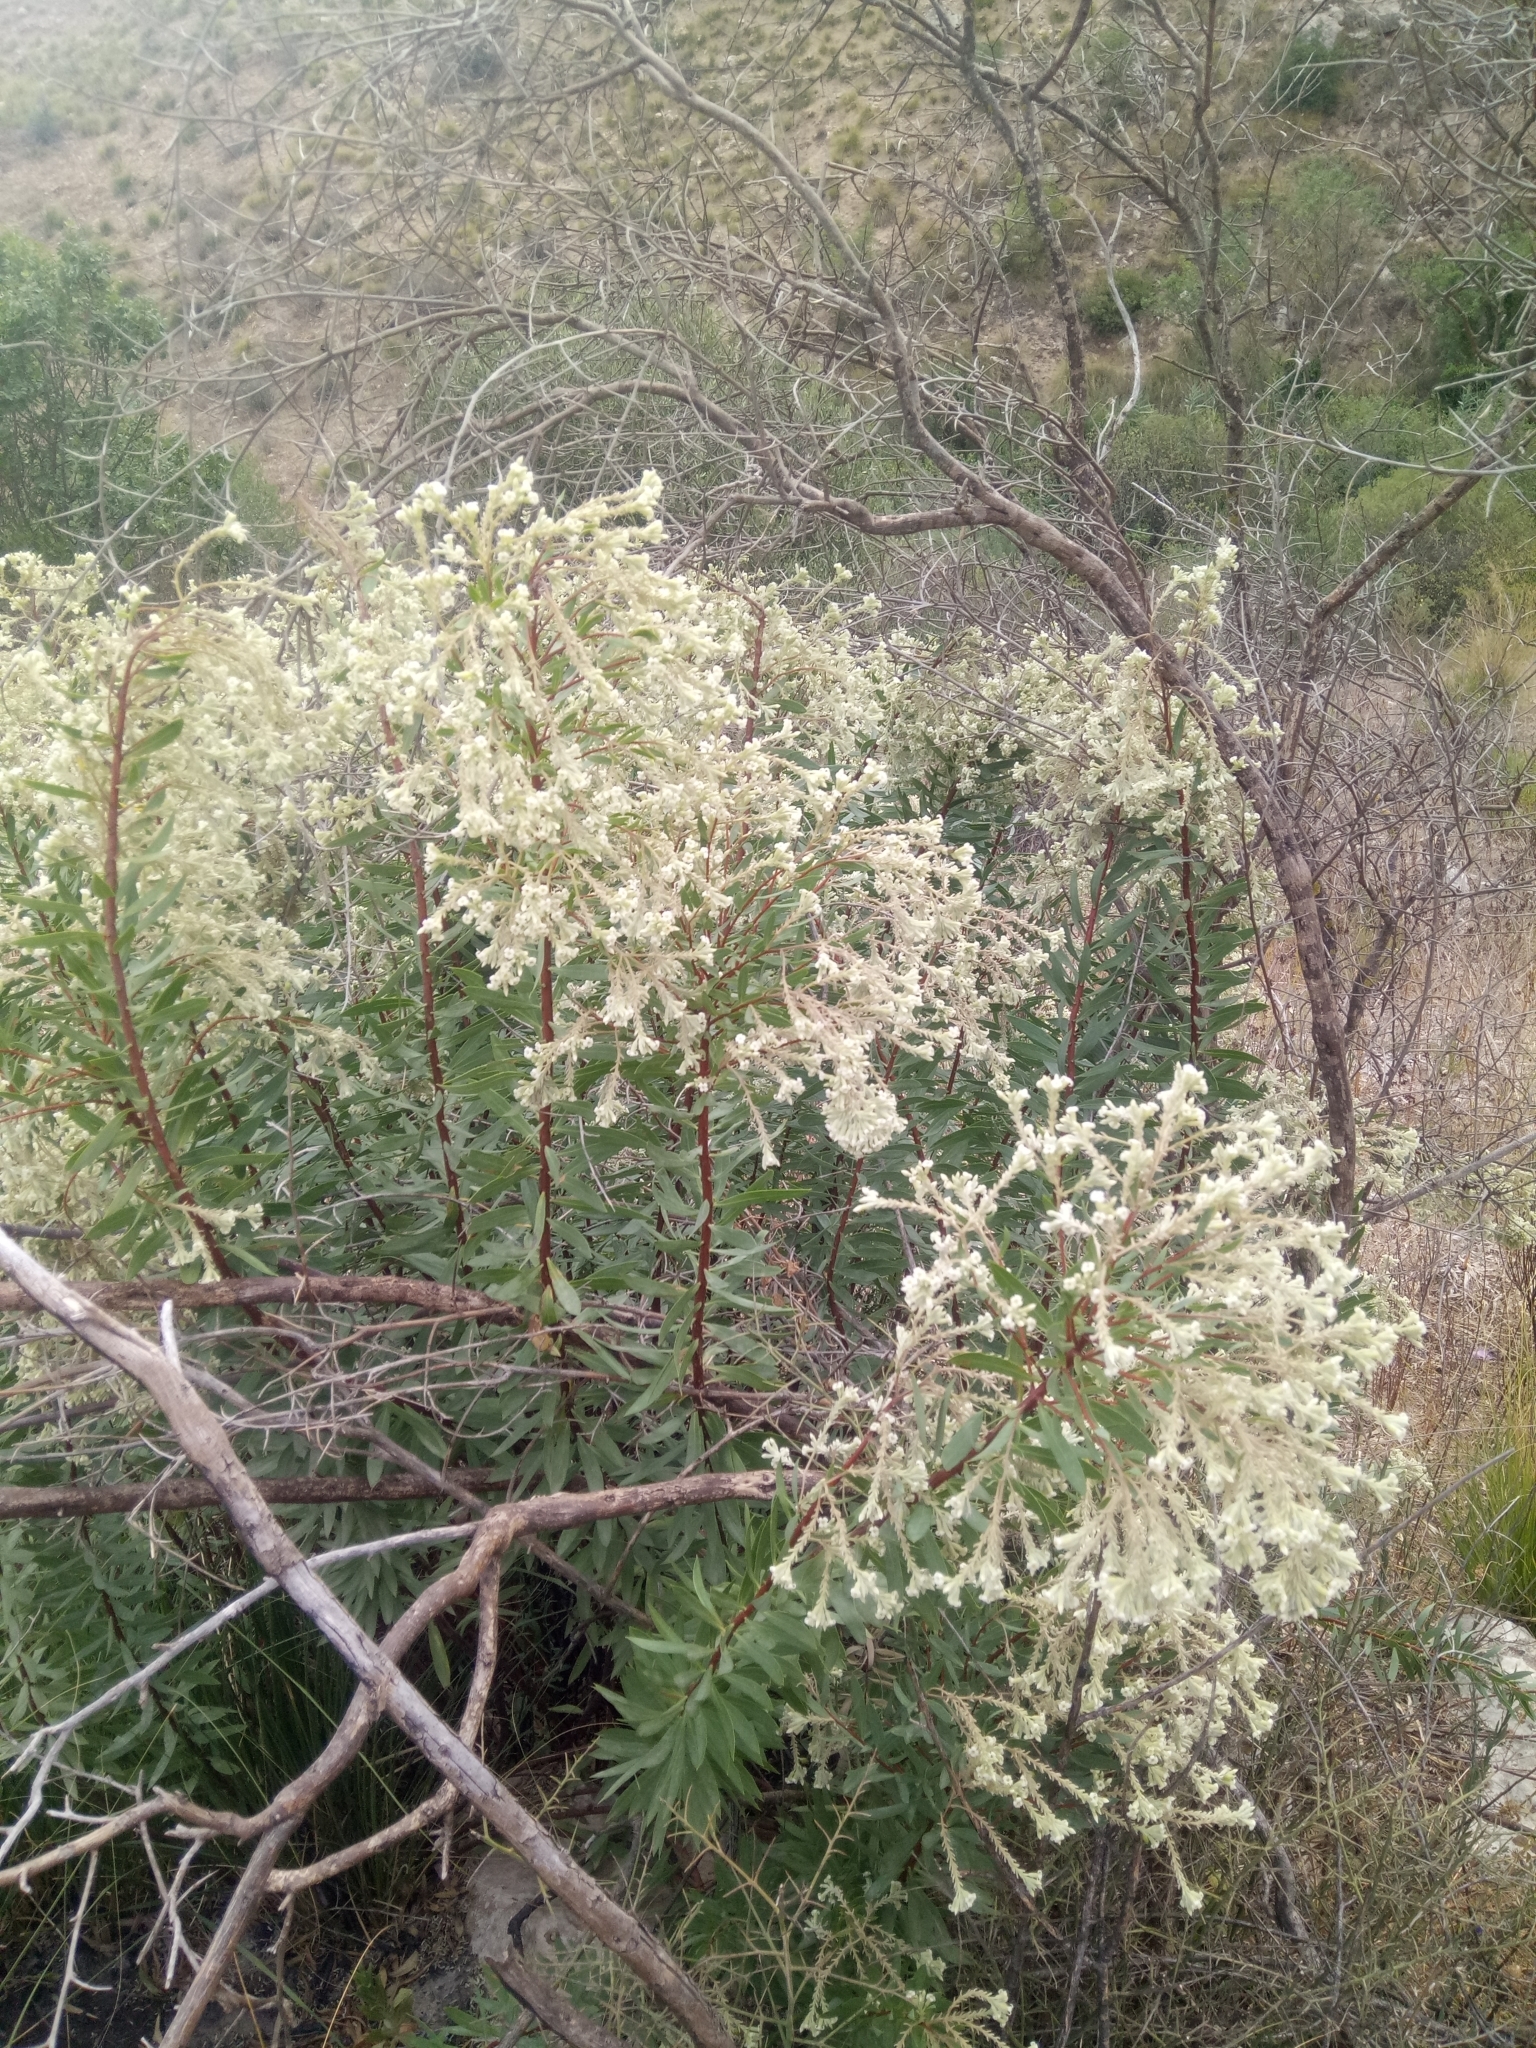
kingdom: Plantae
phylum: Tracheophyta
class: Magnoliopsida
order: Malvales
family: Thymelaeaceae
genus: Daphne
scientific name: Daphne gnidium
